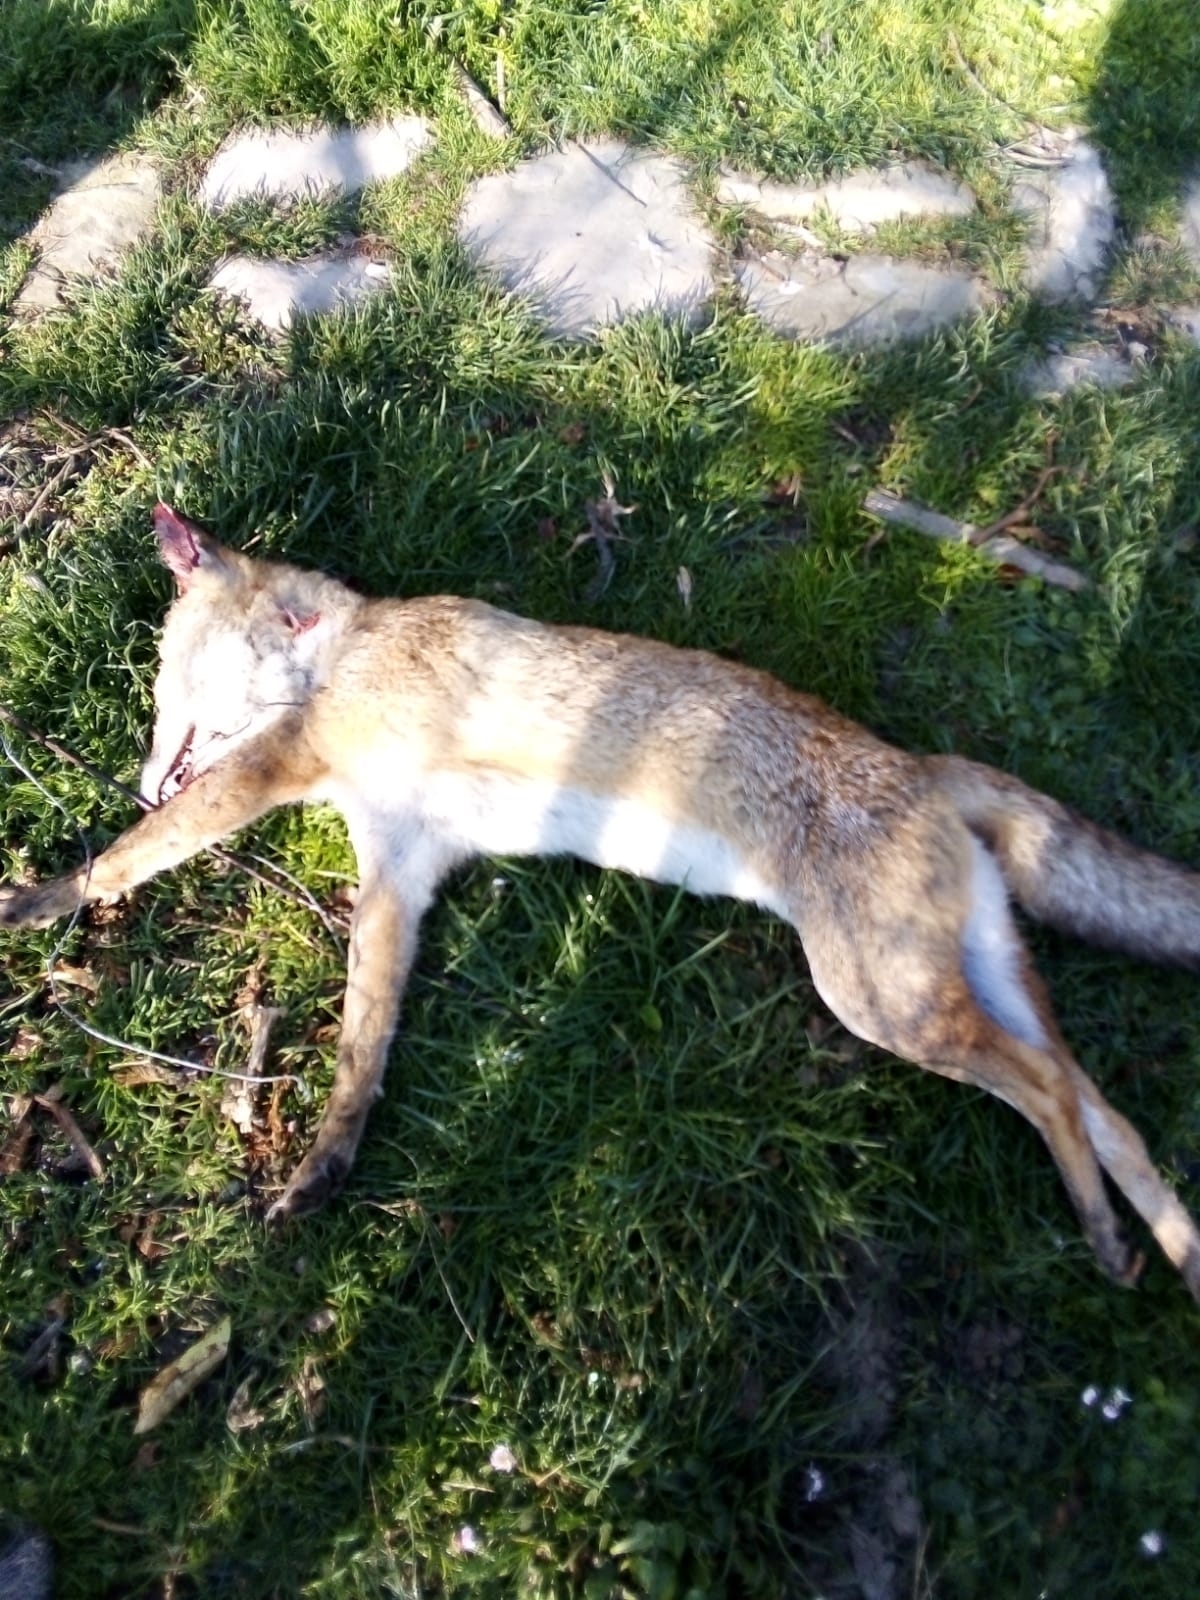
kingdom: Animalia
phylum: Chordata
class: Mammalia
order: Carnivora
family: Canidae
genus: Vulpes
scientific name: Vulpes vulpes
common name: Red fox
